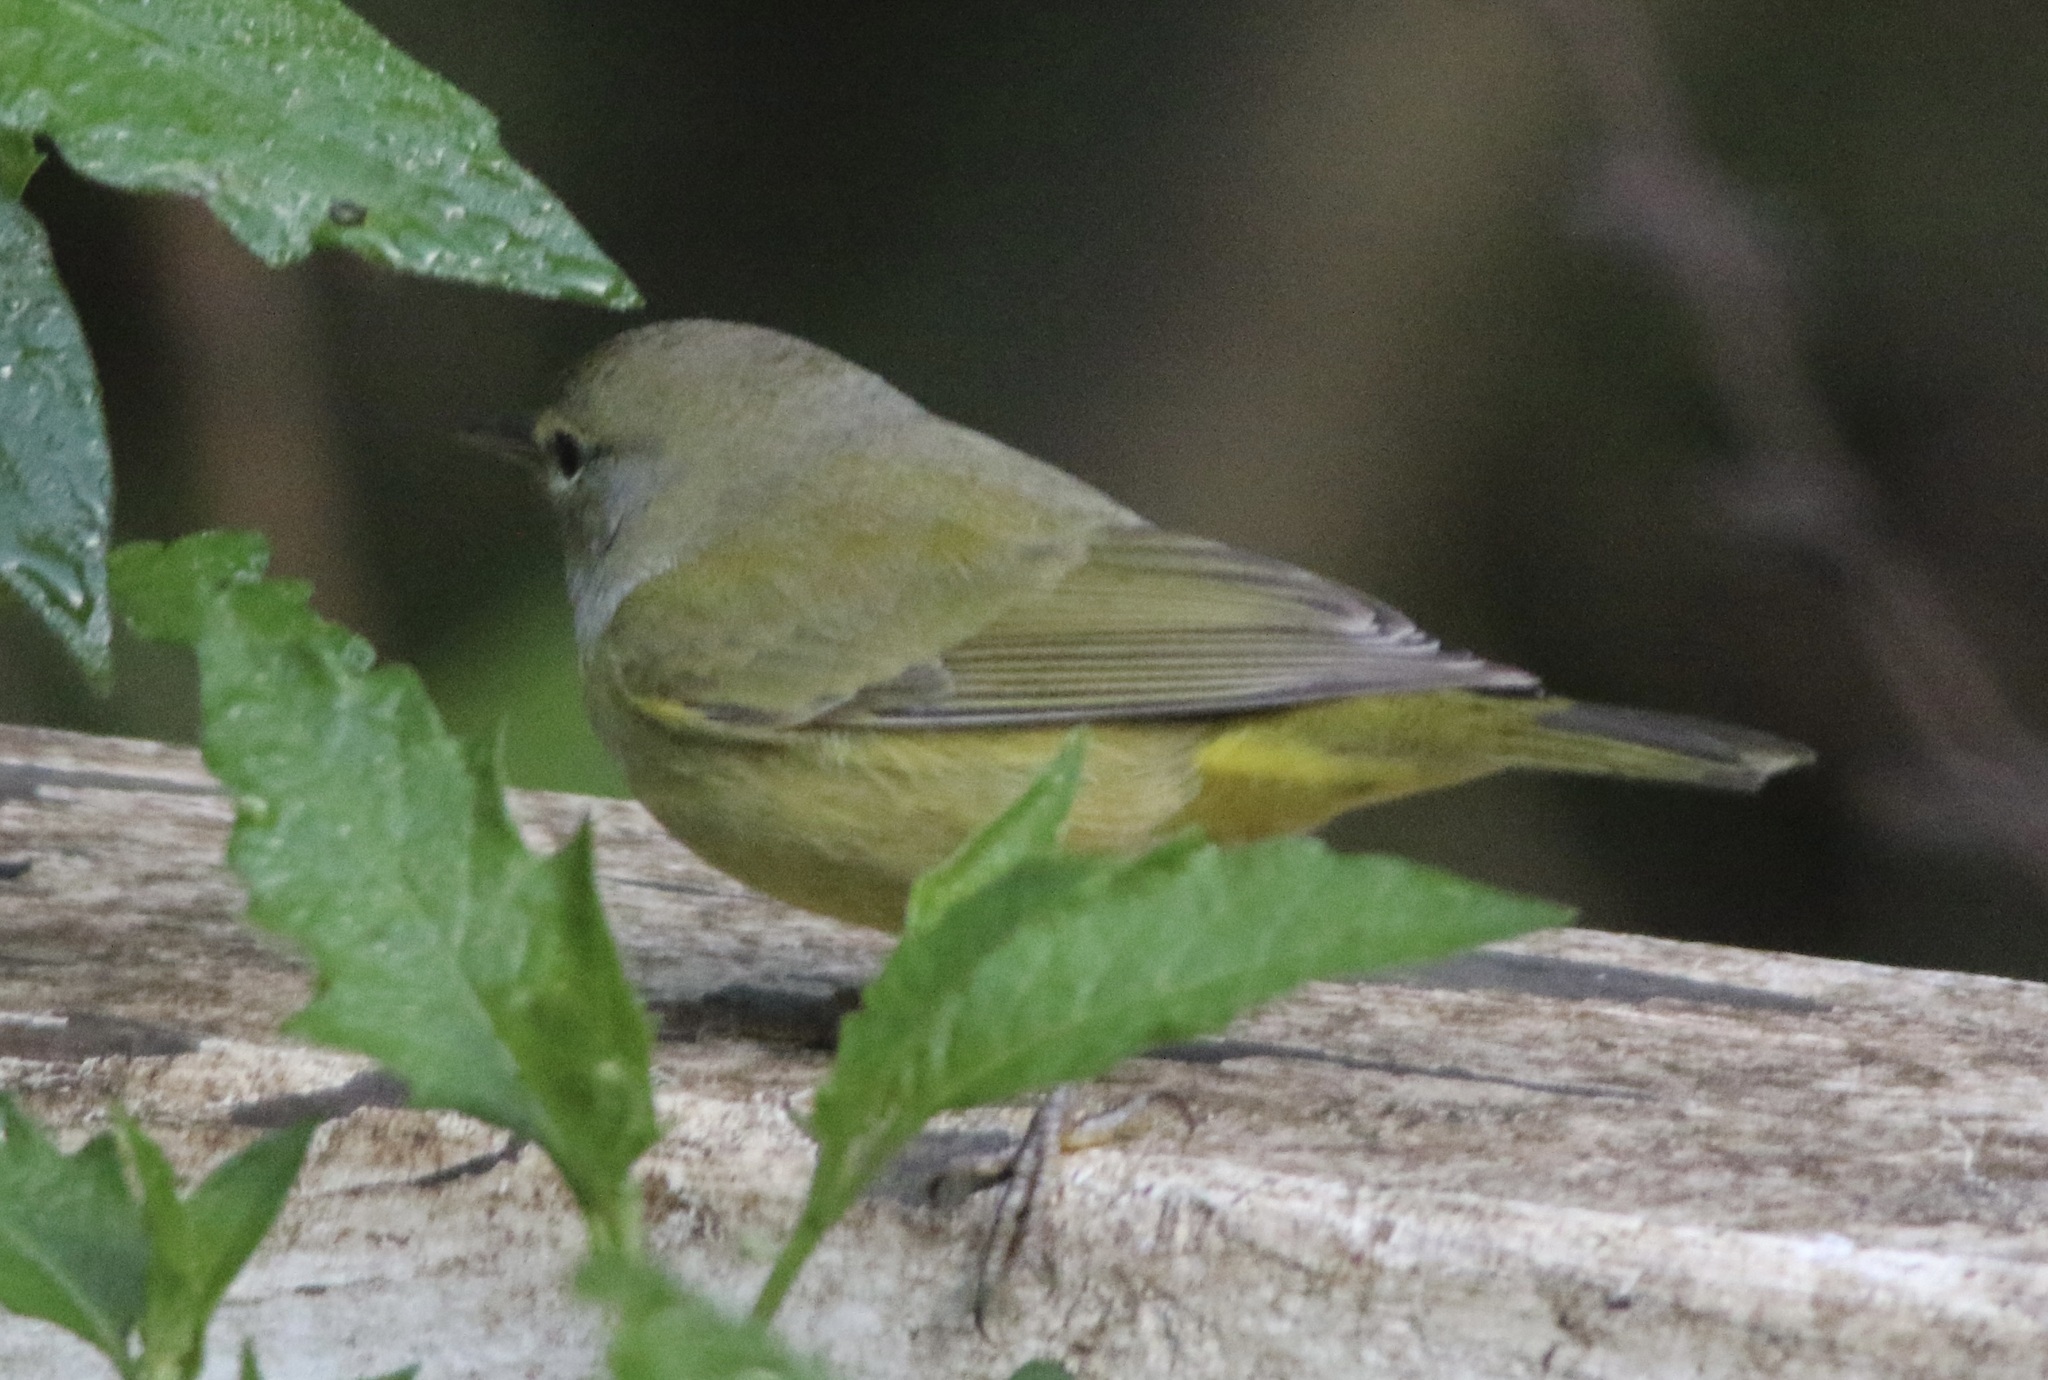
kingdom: Animalia
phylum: Chordata
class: Aves
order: Passeriformes
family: Parulidae
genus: Leiothlypis
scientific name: Leiothlypis celata
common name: Orange-crowned warbler
